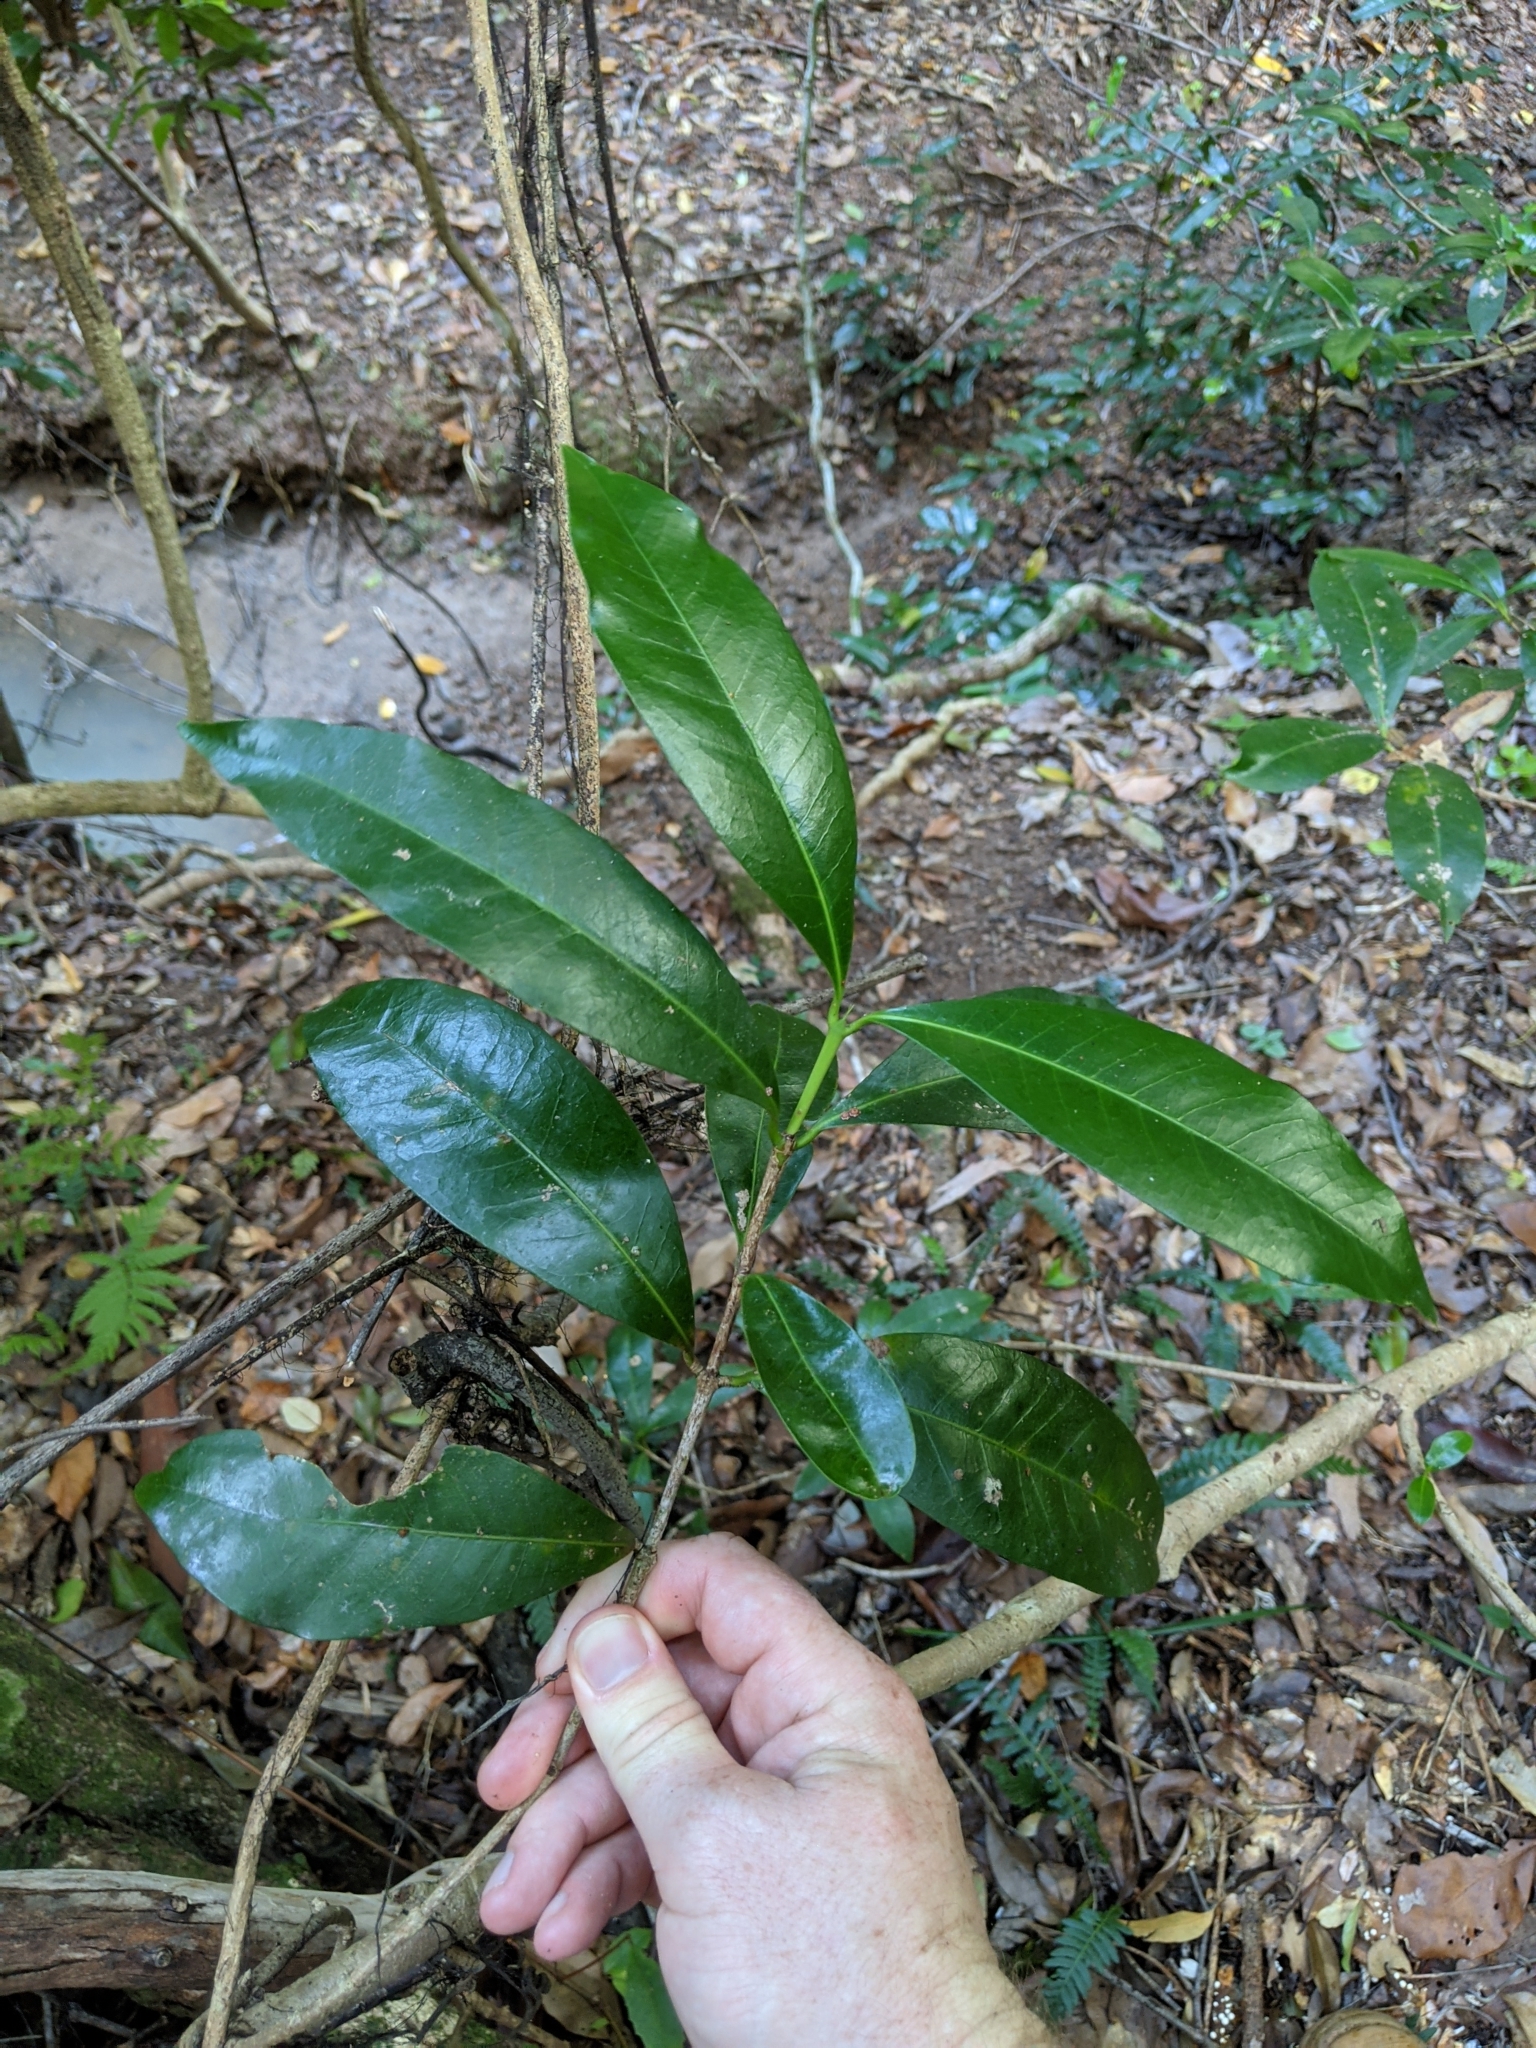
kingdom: Plantae
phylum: Tracheophyta
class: Magnoliopsida
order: Gentianales
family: Rubiaceae
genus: Ixora
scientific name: Ixora beckleri
